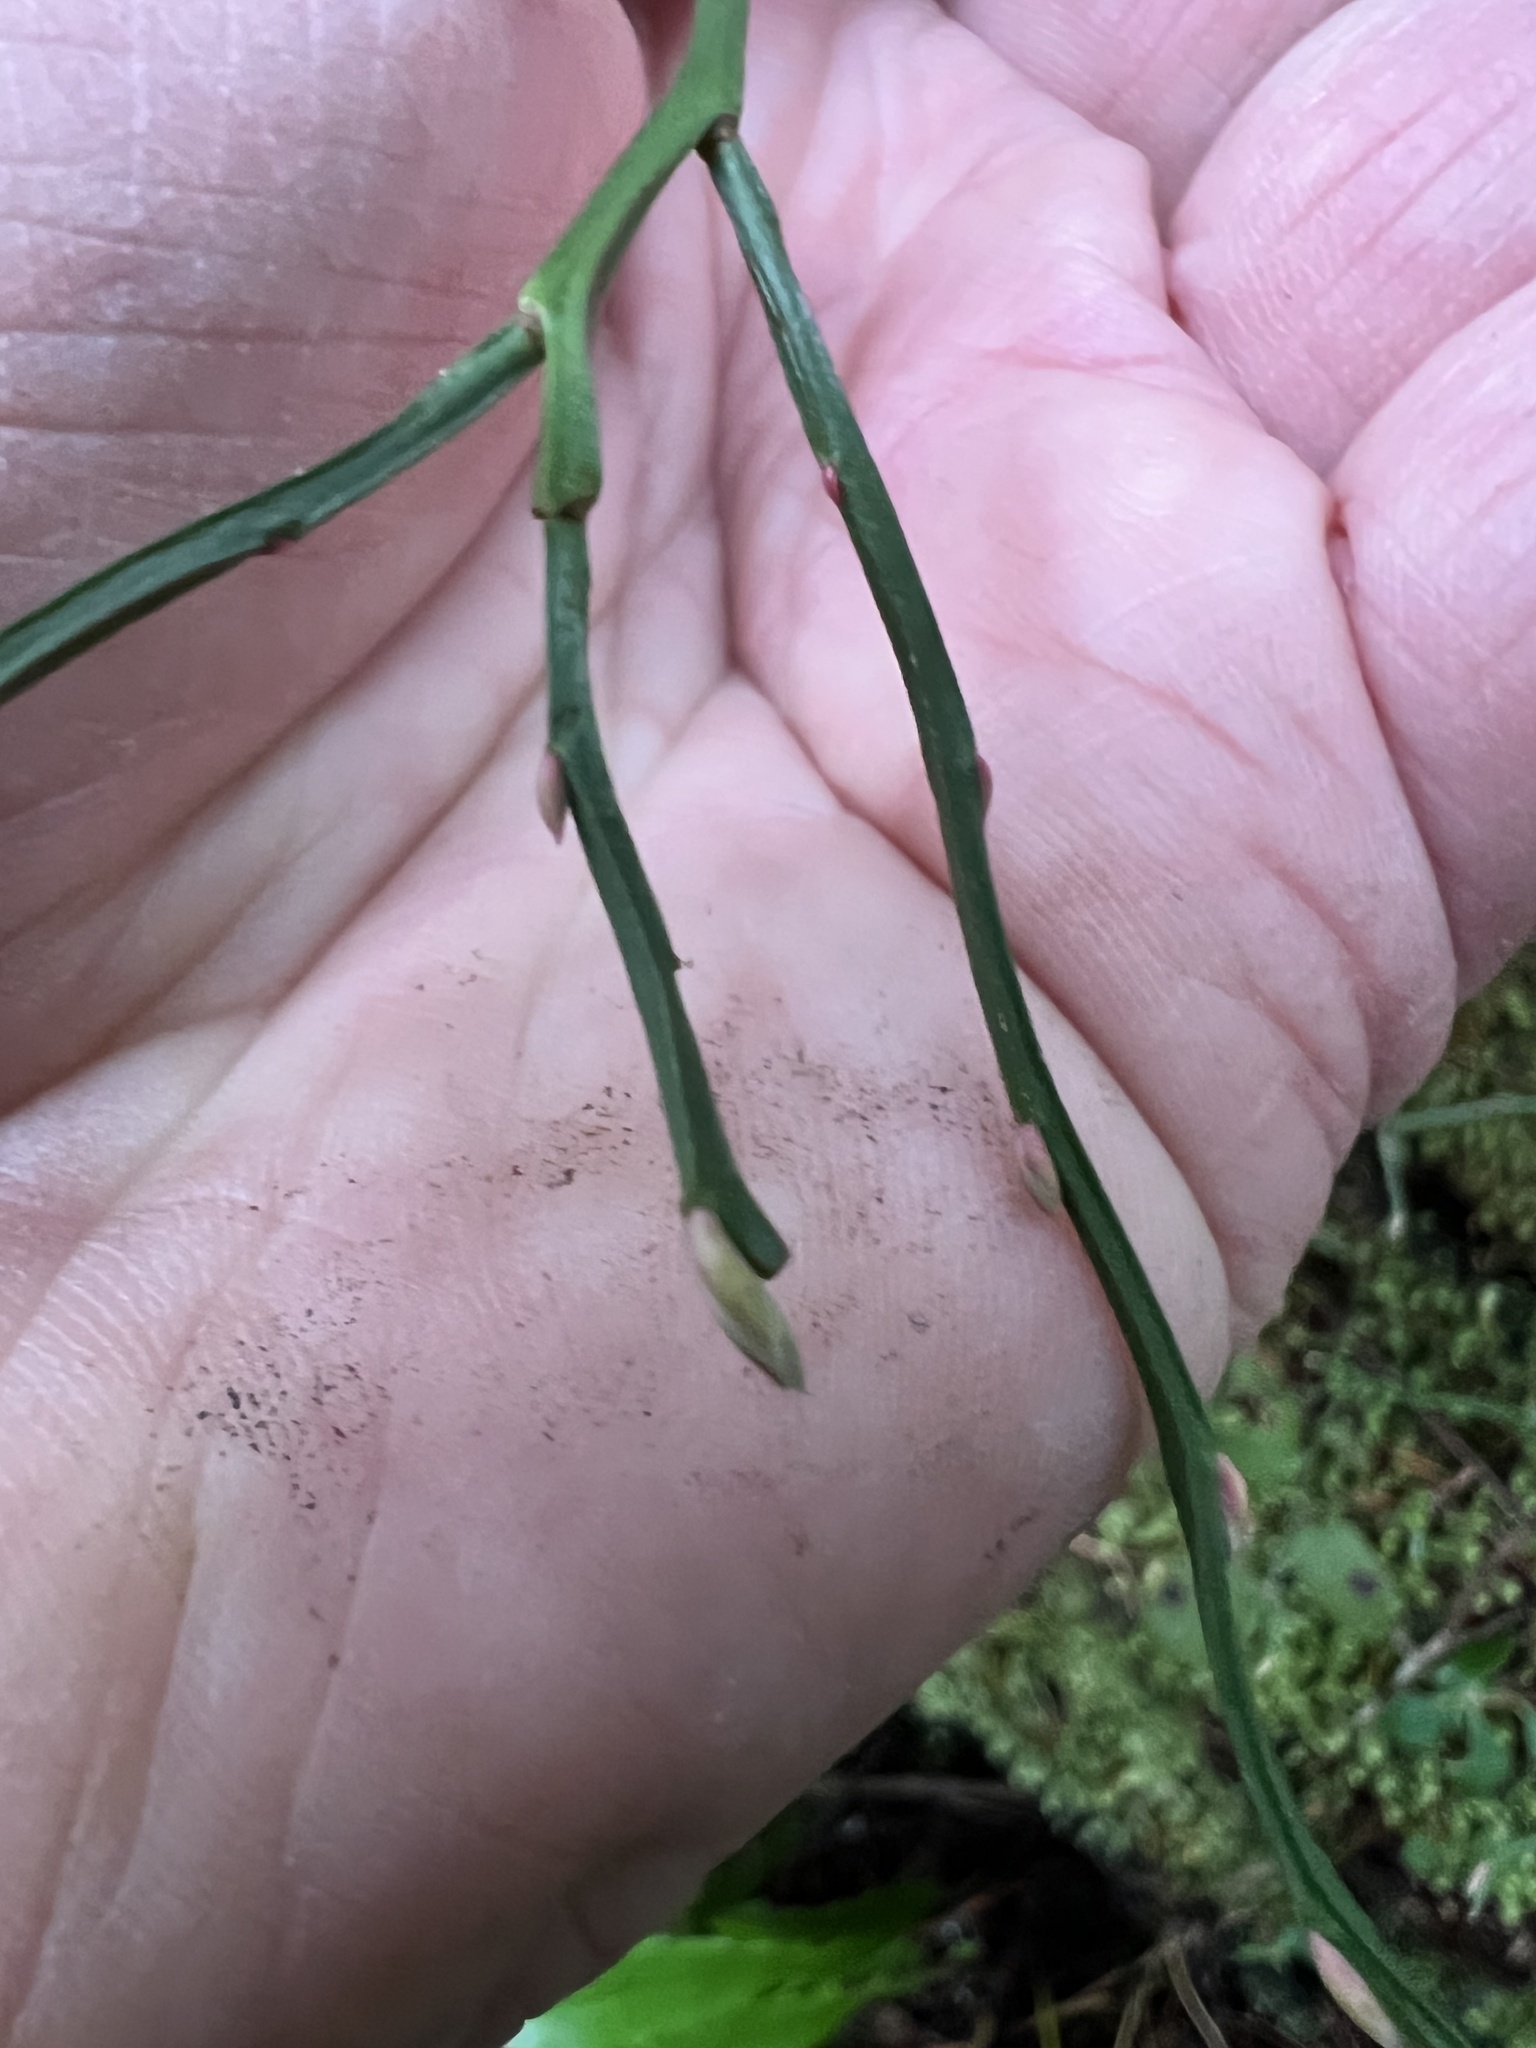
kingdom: Plantae
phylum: Tracheophyta
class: Magnoliopsida
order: Ericales
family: Ericaceae
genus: Vaccinium
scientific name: Vaccinium parvifolium
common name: Red-huckleberry
